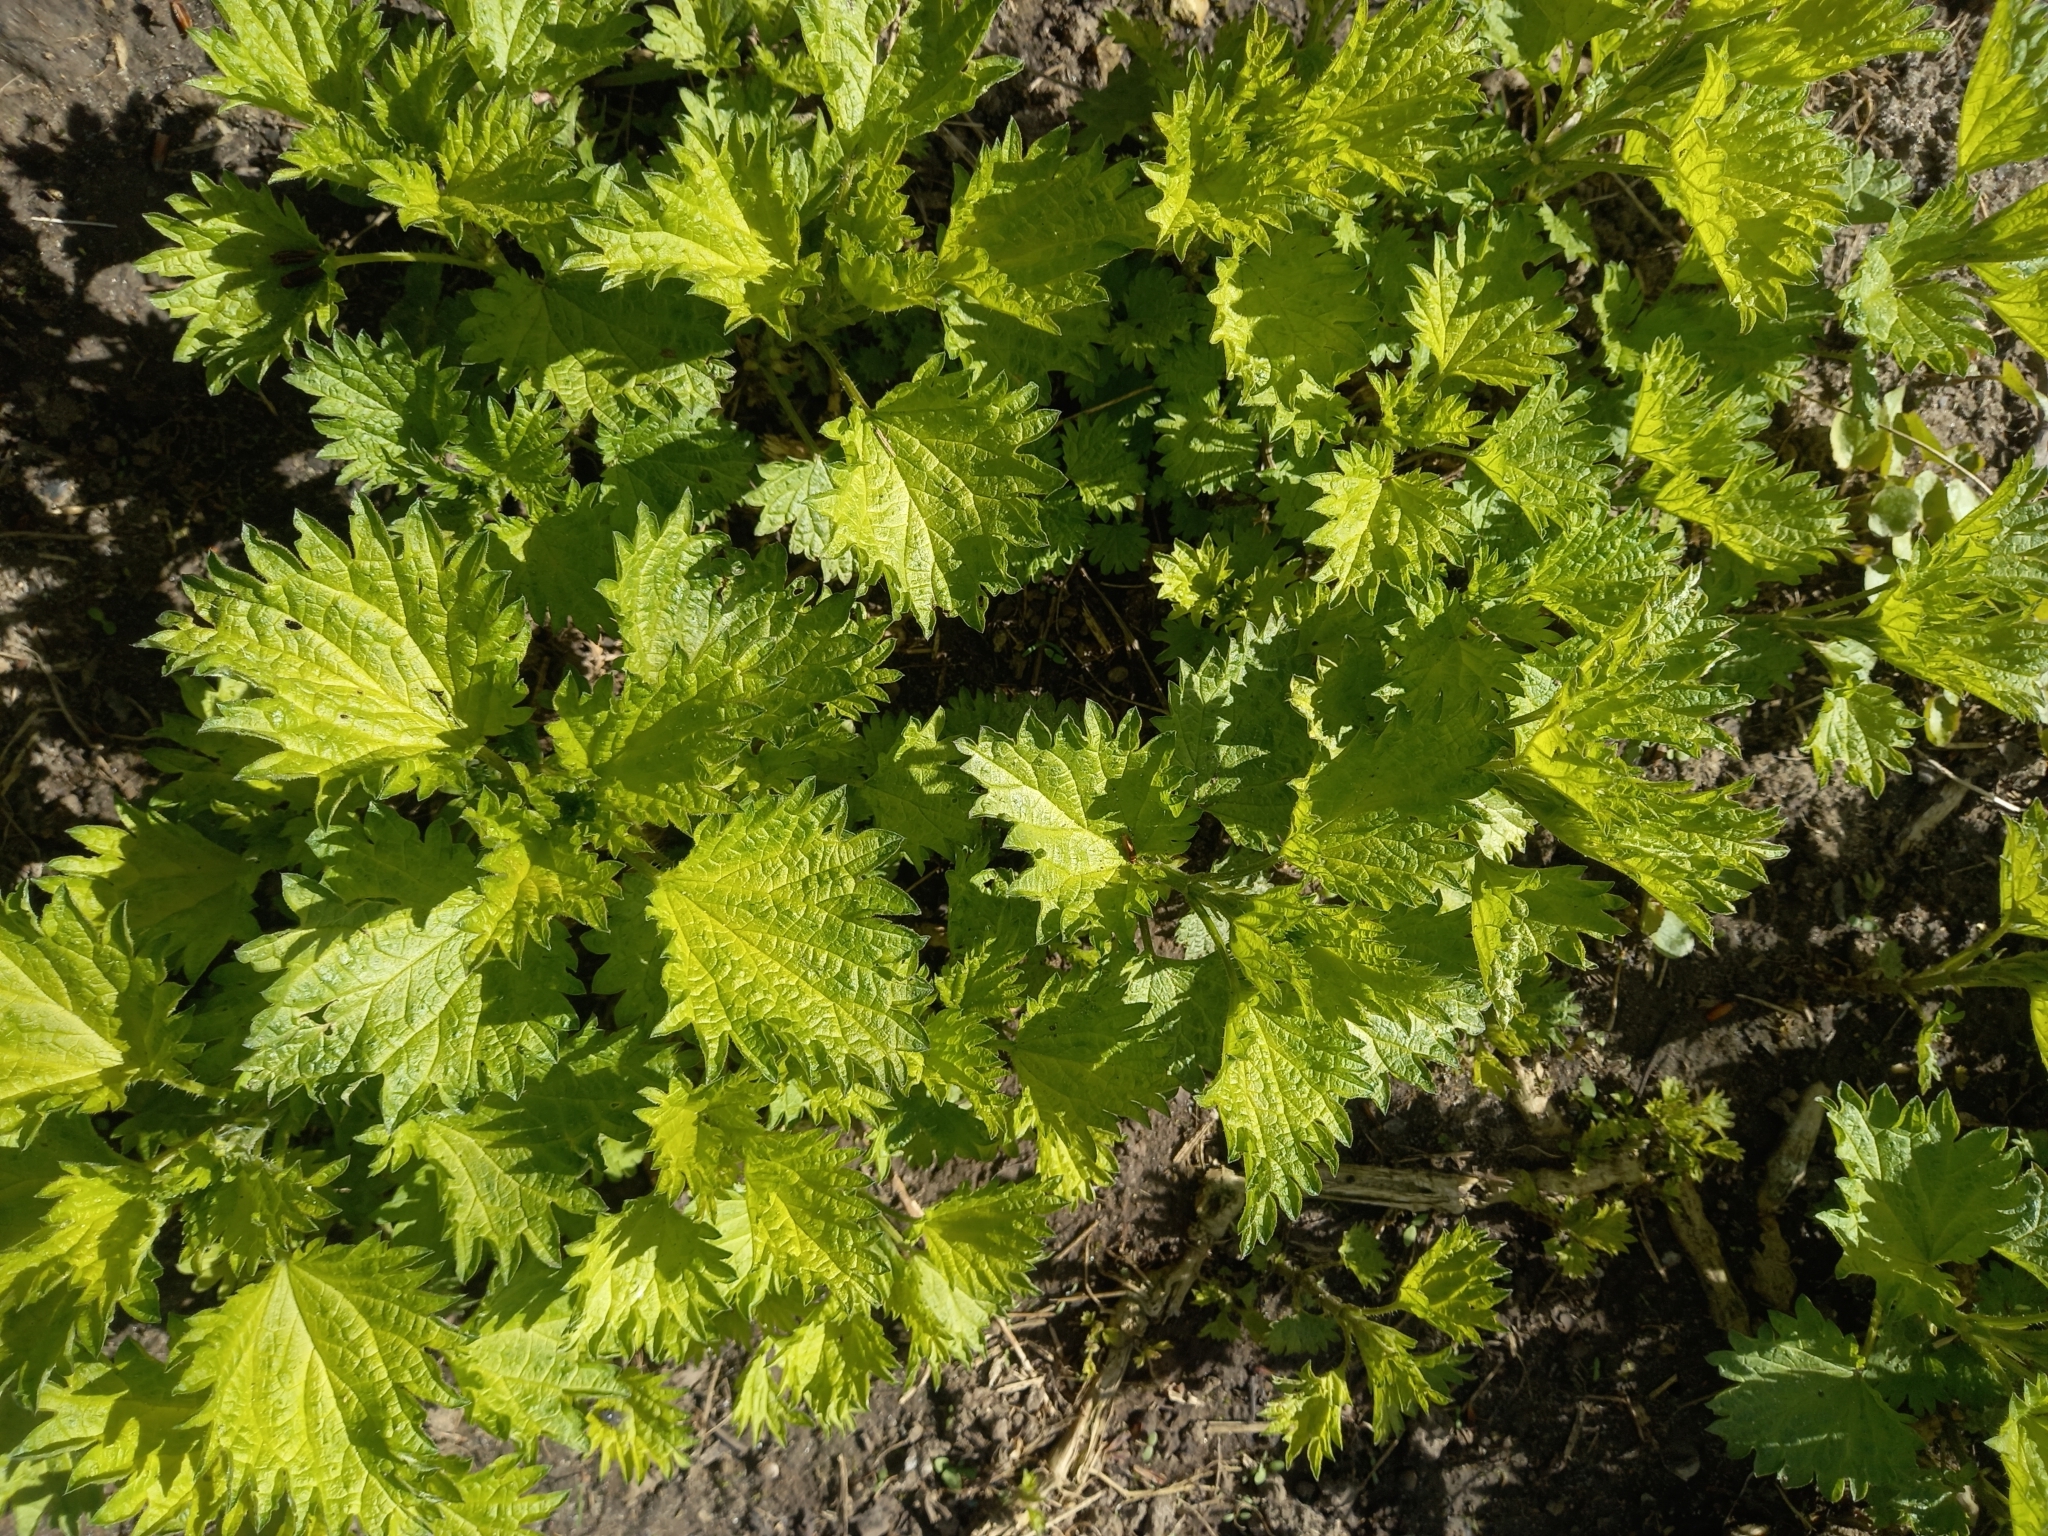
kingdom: Plantae
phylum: Tracheophyta
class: Magnoliopsida
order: Rosales
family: Urticaceae
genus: Urtica
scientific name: Urtica dioica
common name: Common nettle
